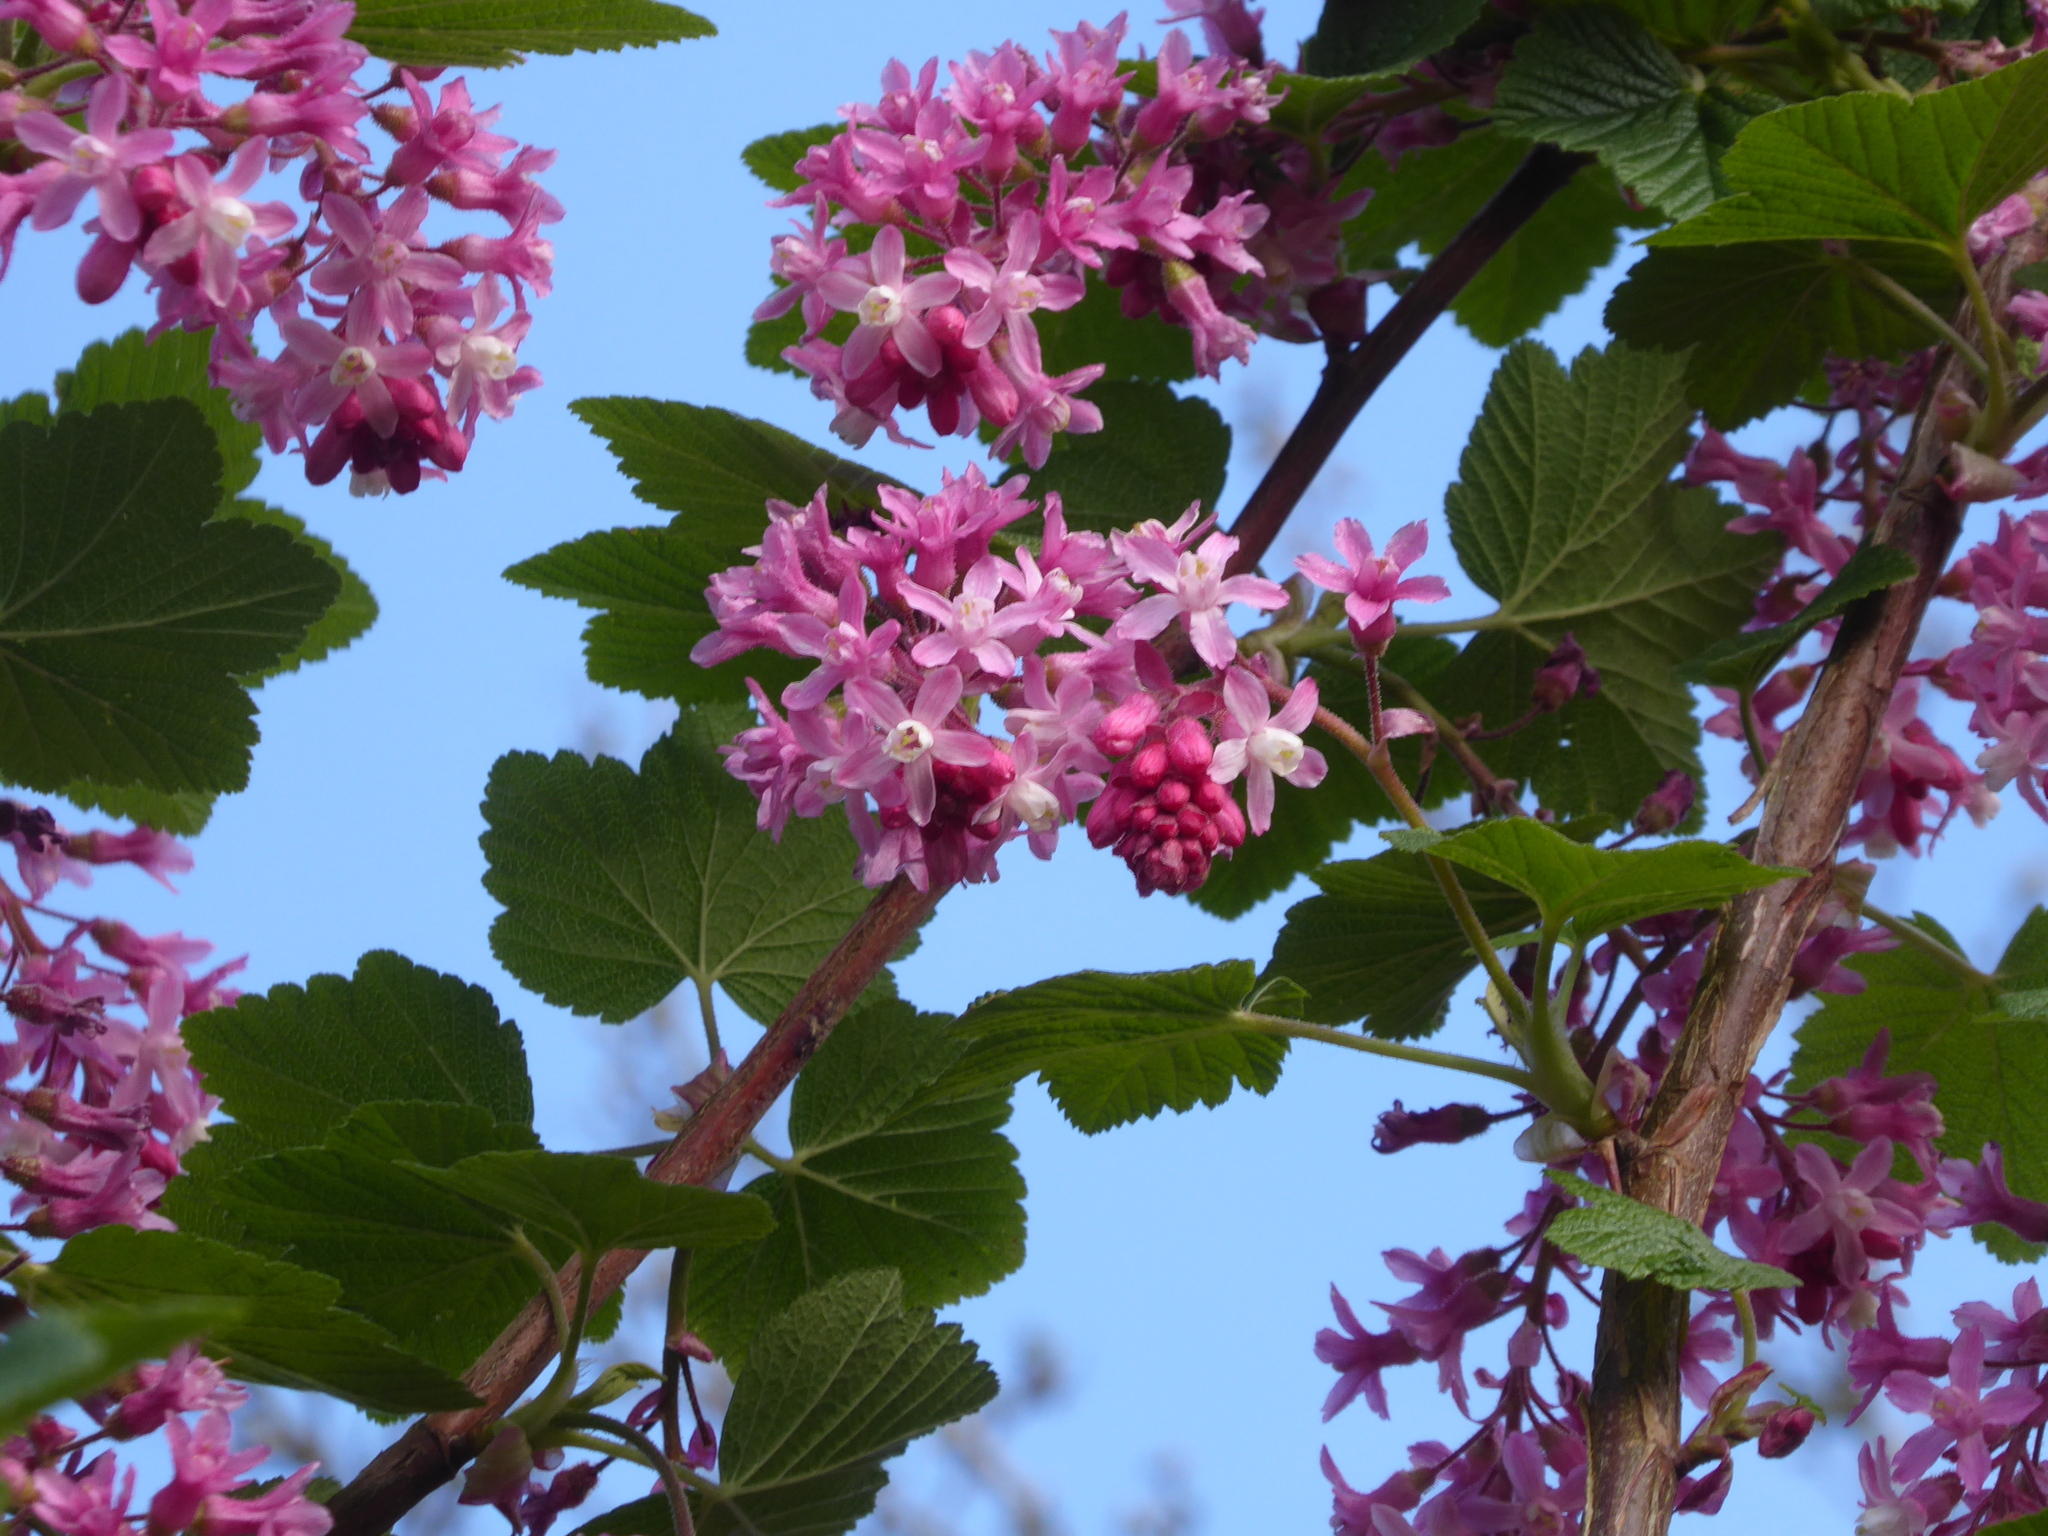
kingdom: Plantae
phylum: Tracheophyta
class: Magnoliopsida
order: Saxifragales
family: Grossulariaceae
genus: Ribes
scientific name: Ribes sanguineum
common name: Flowering currant
